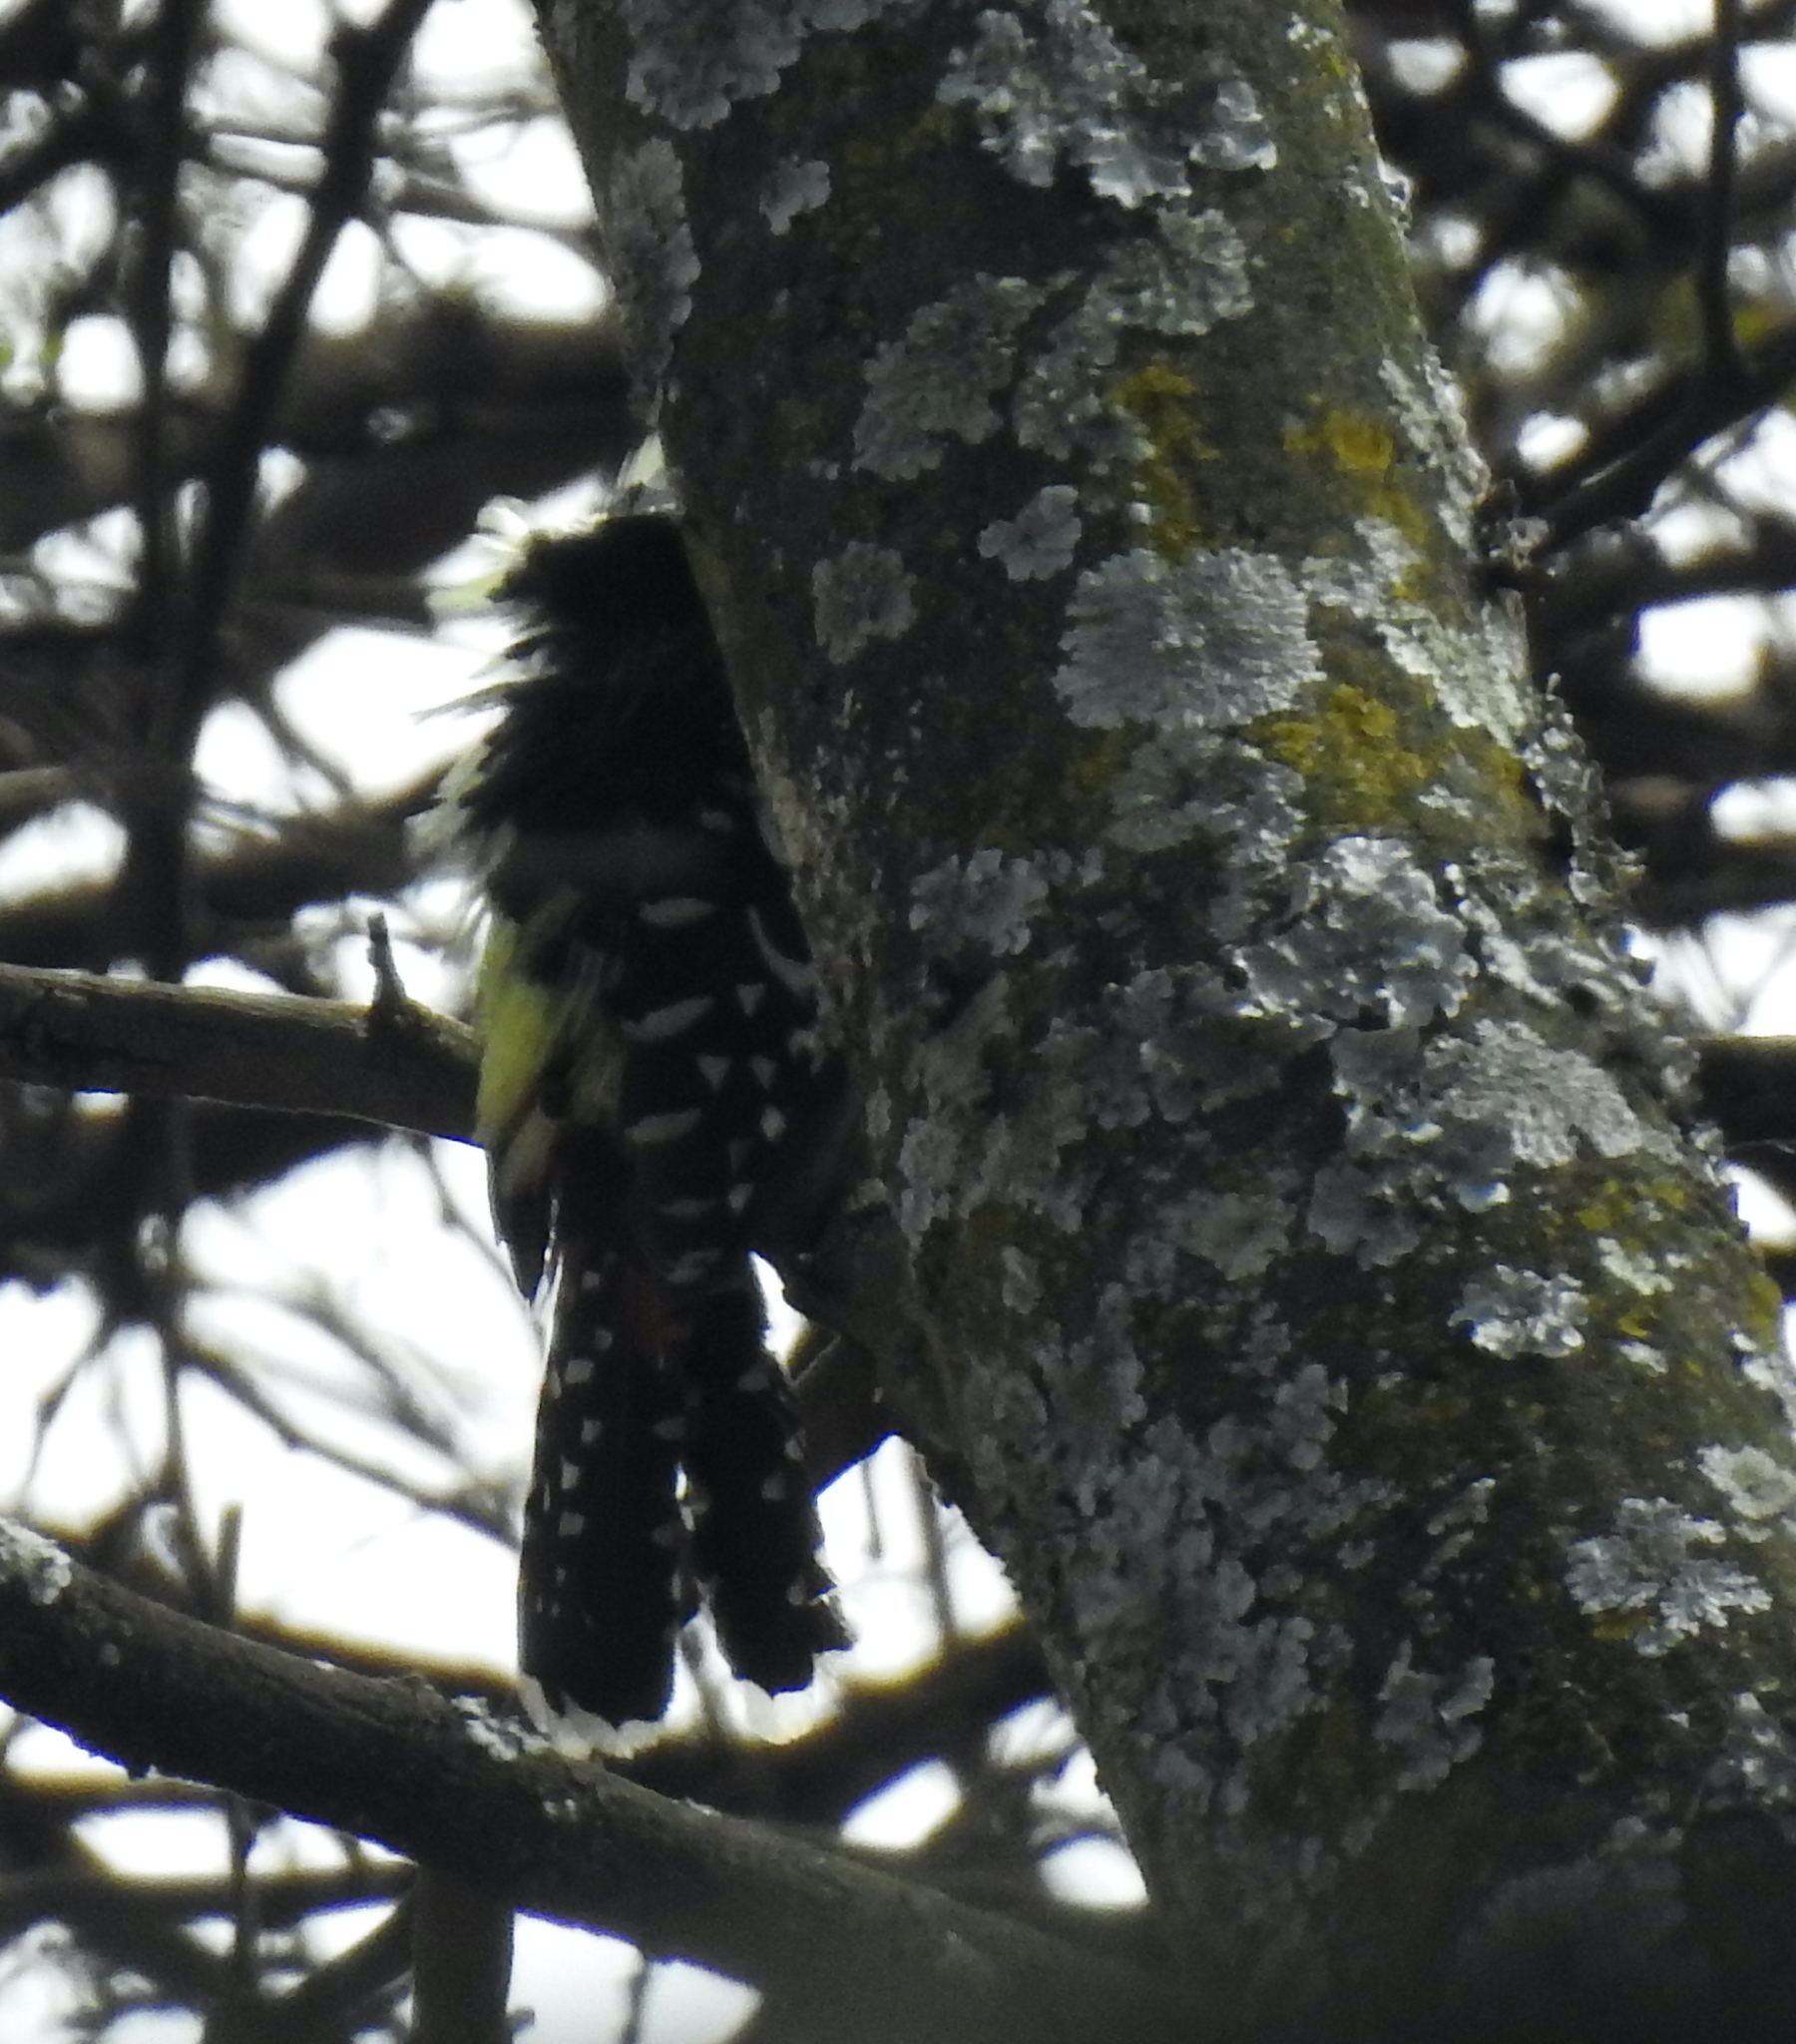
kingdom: Animalia
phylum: Chordata
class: Aves
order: Piciformes
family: Lybiidae
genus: Trachyphonus
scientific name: Trachyphonus vaillantii
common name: Crested barbet
